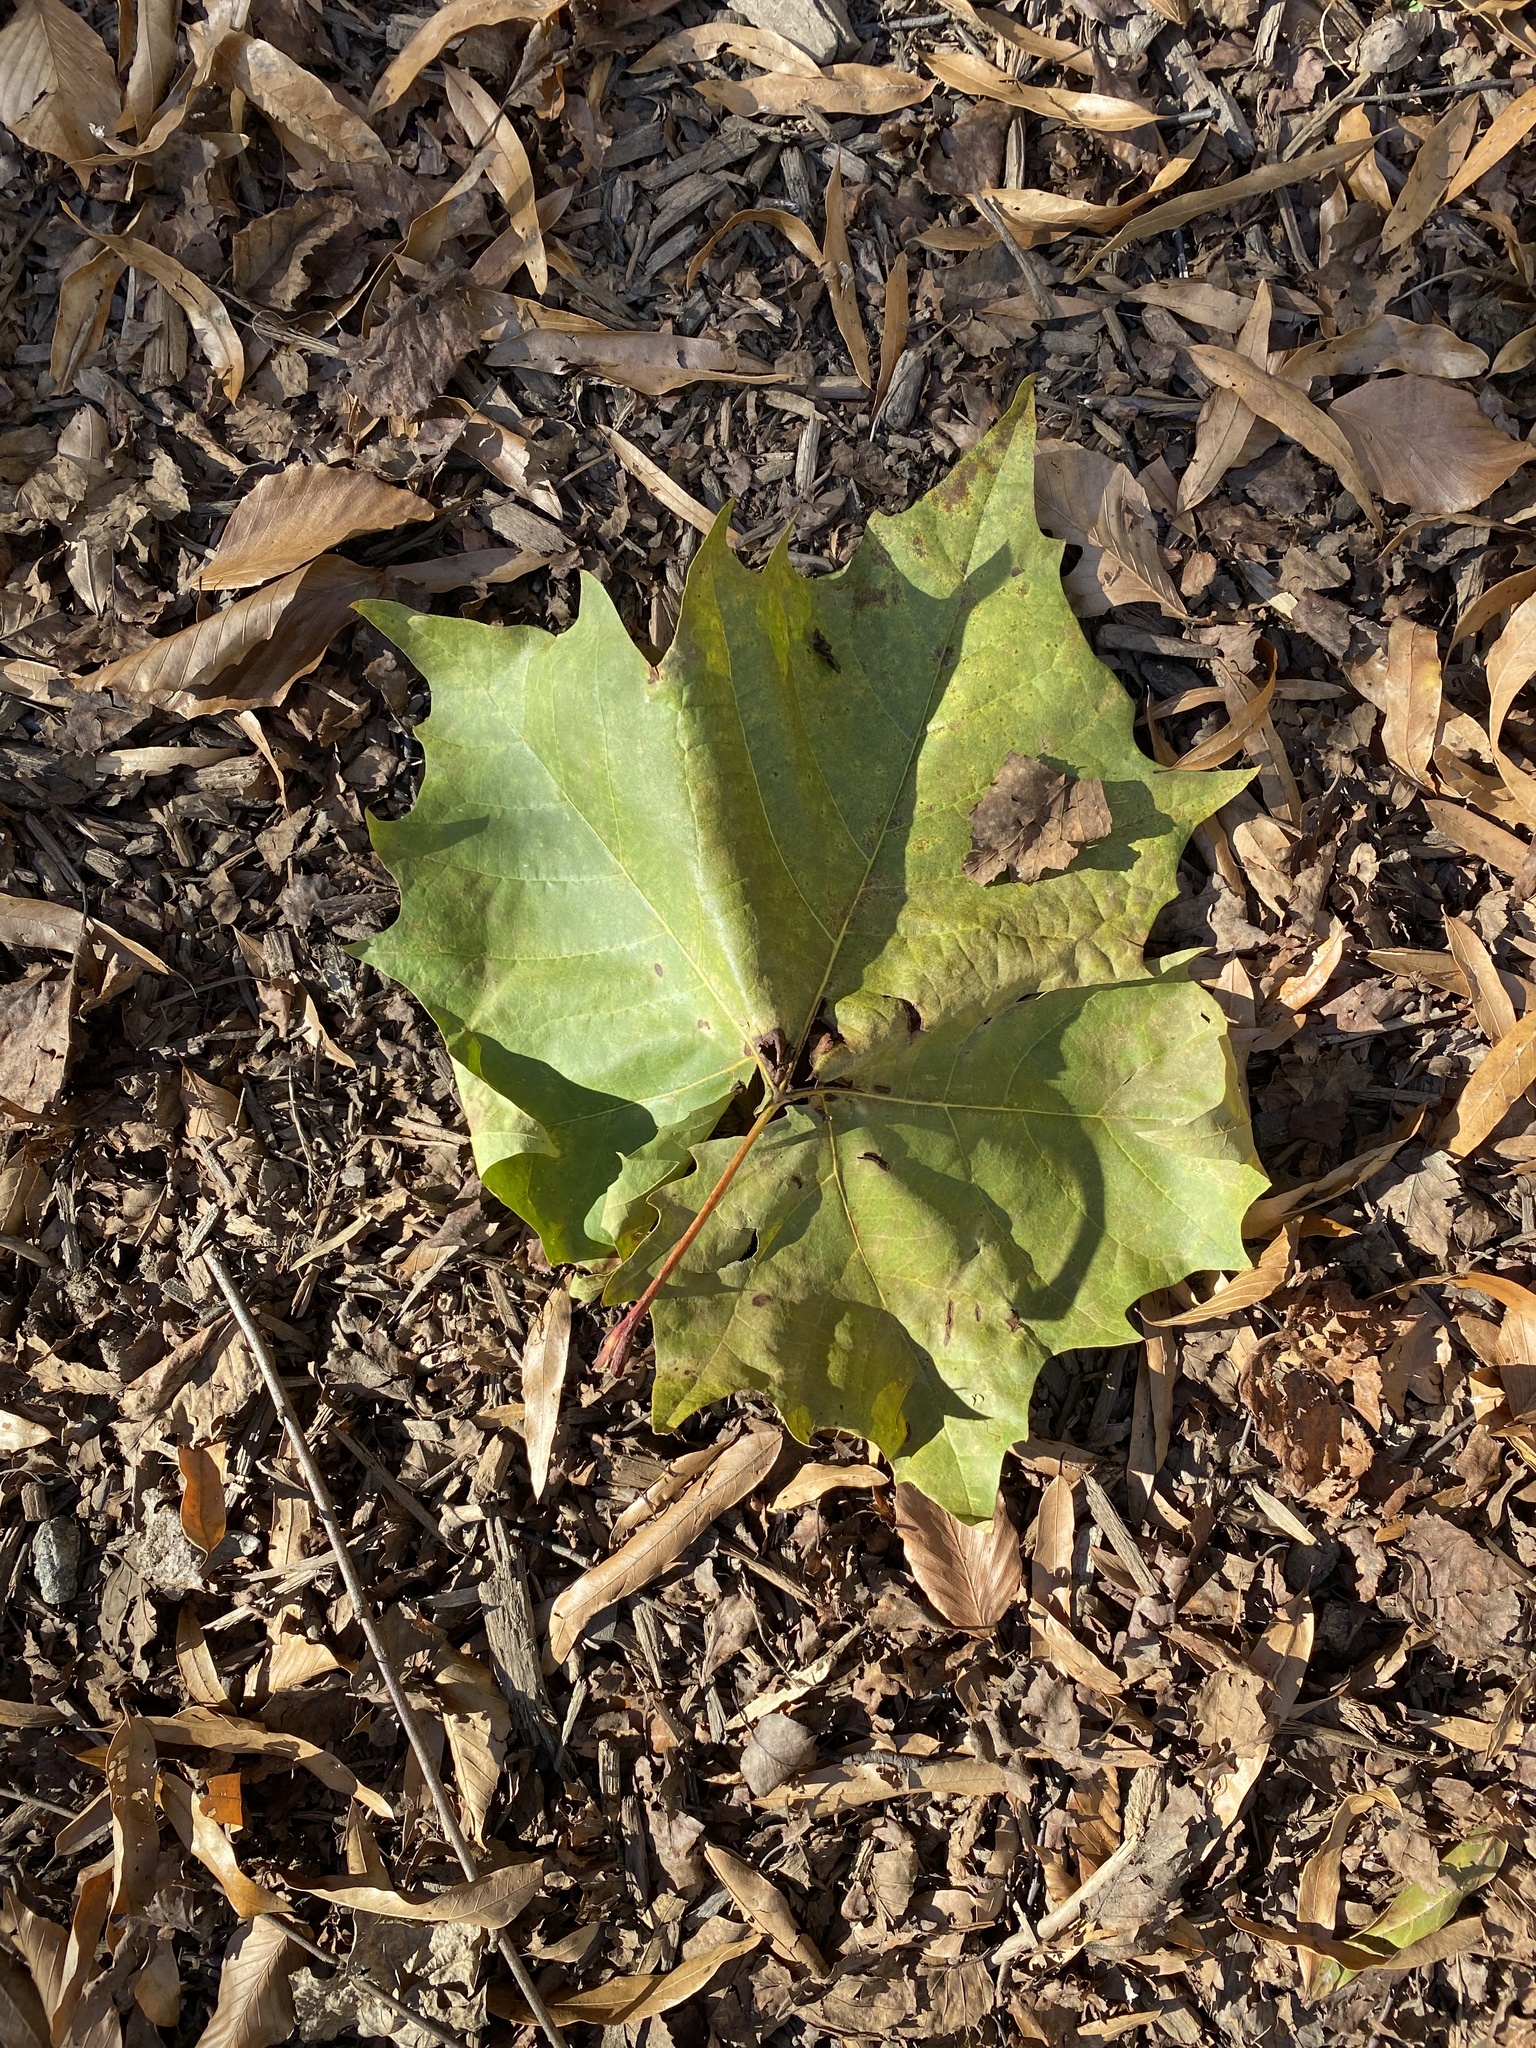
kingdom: Plantae
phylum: Tracheophyta
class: Magnoliopsida
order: Proteales
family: Platanaceae
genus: Platanus
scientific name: Platanus occidentalis
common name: American sycamore
